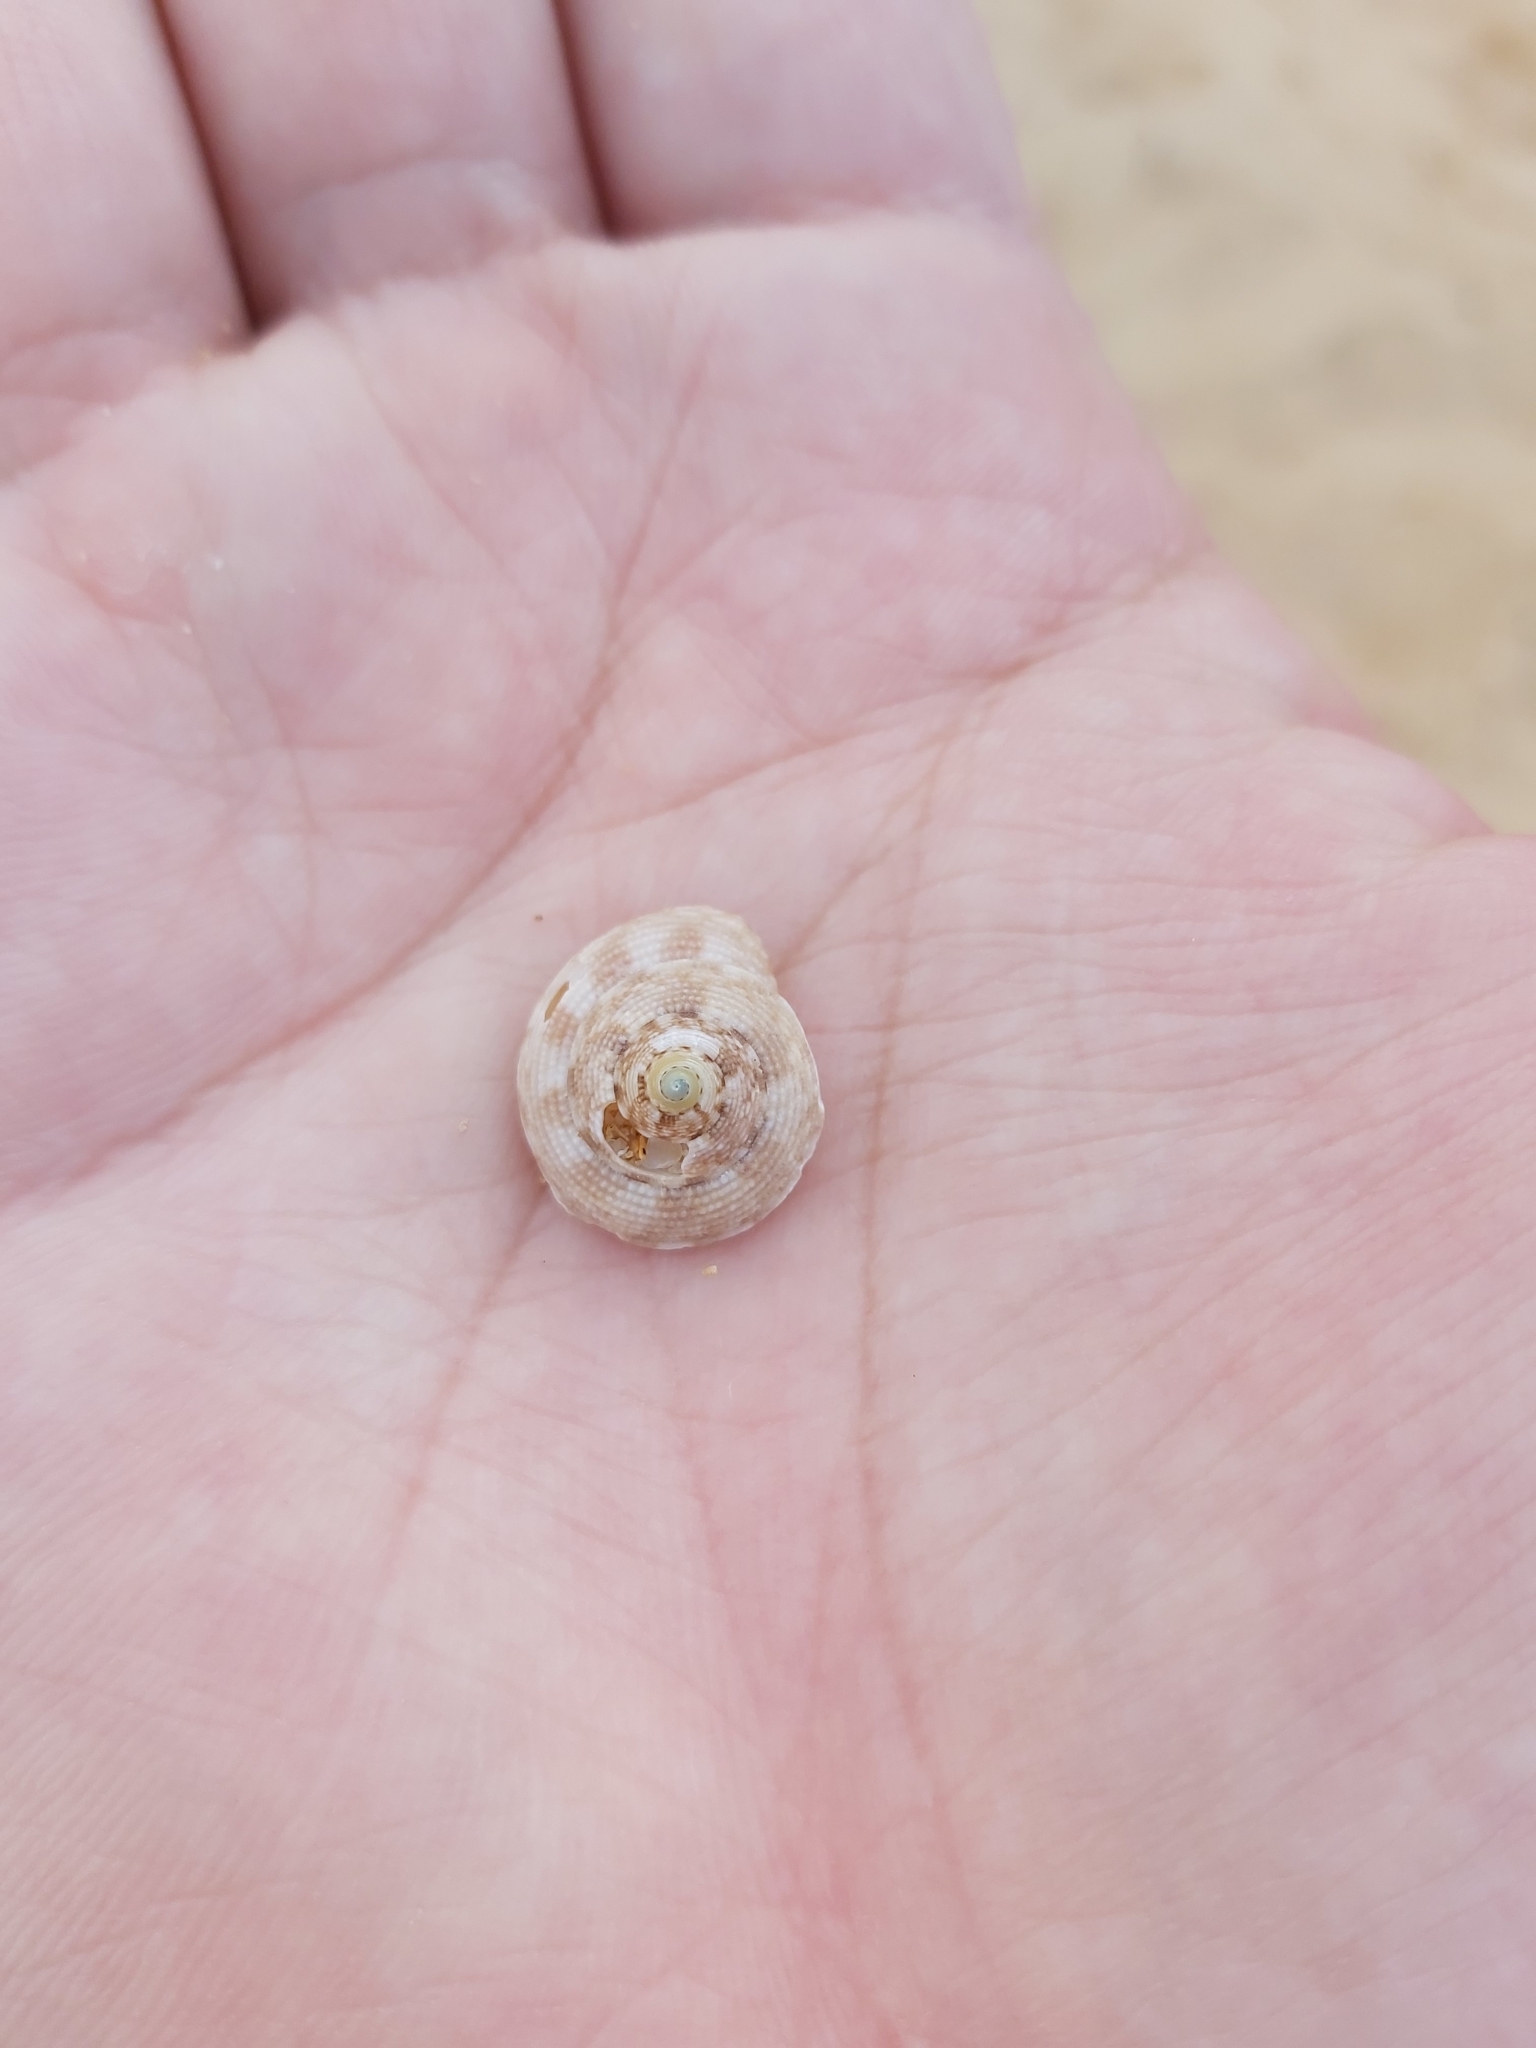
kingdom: Animalia
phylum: Mollusca
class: Gastropoda
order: Trochida
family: Trochidae
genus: Clanculus
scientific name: Clanculus brunneus
